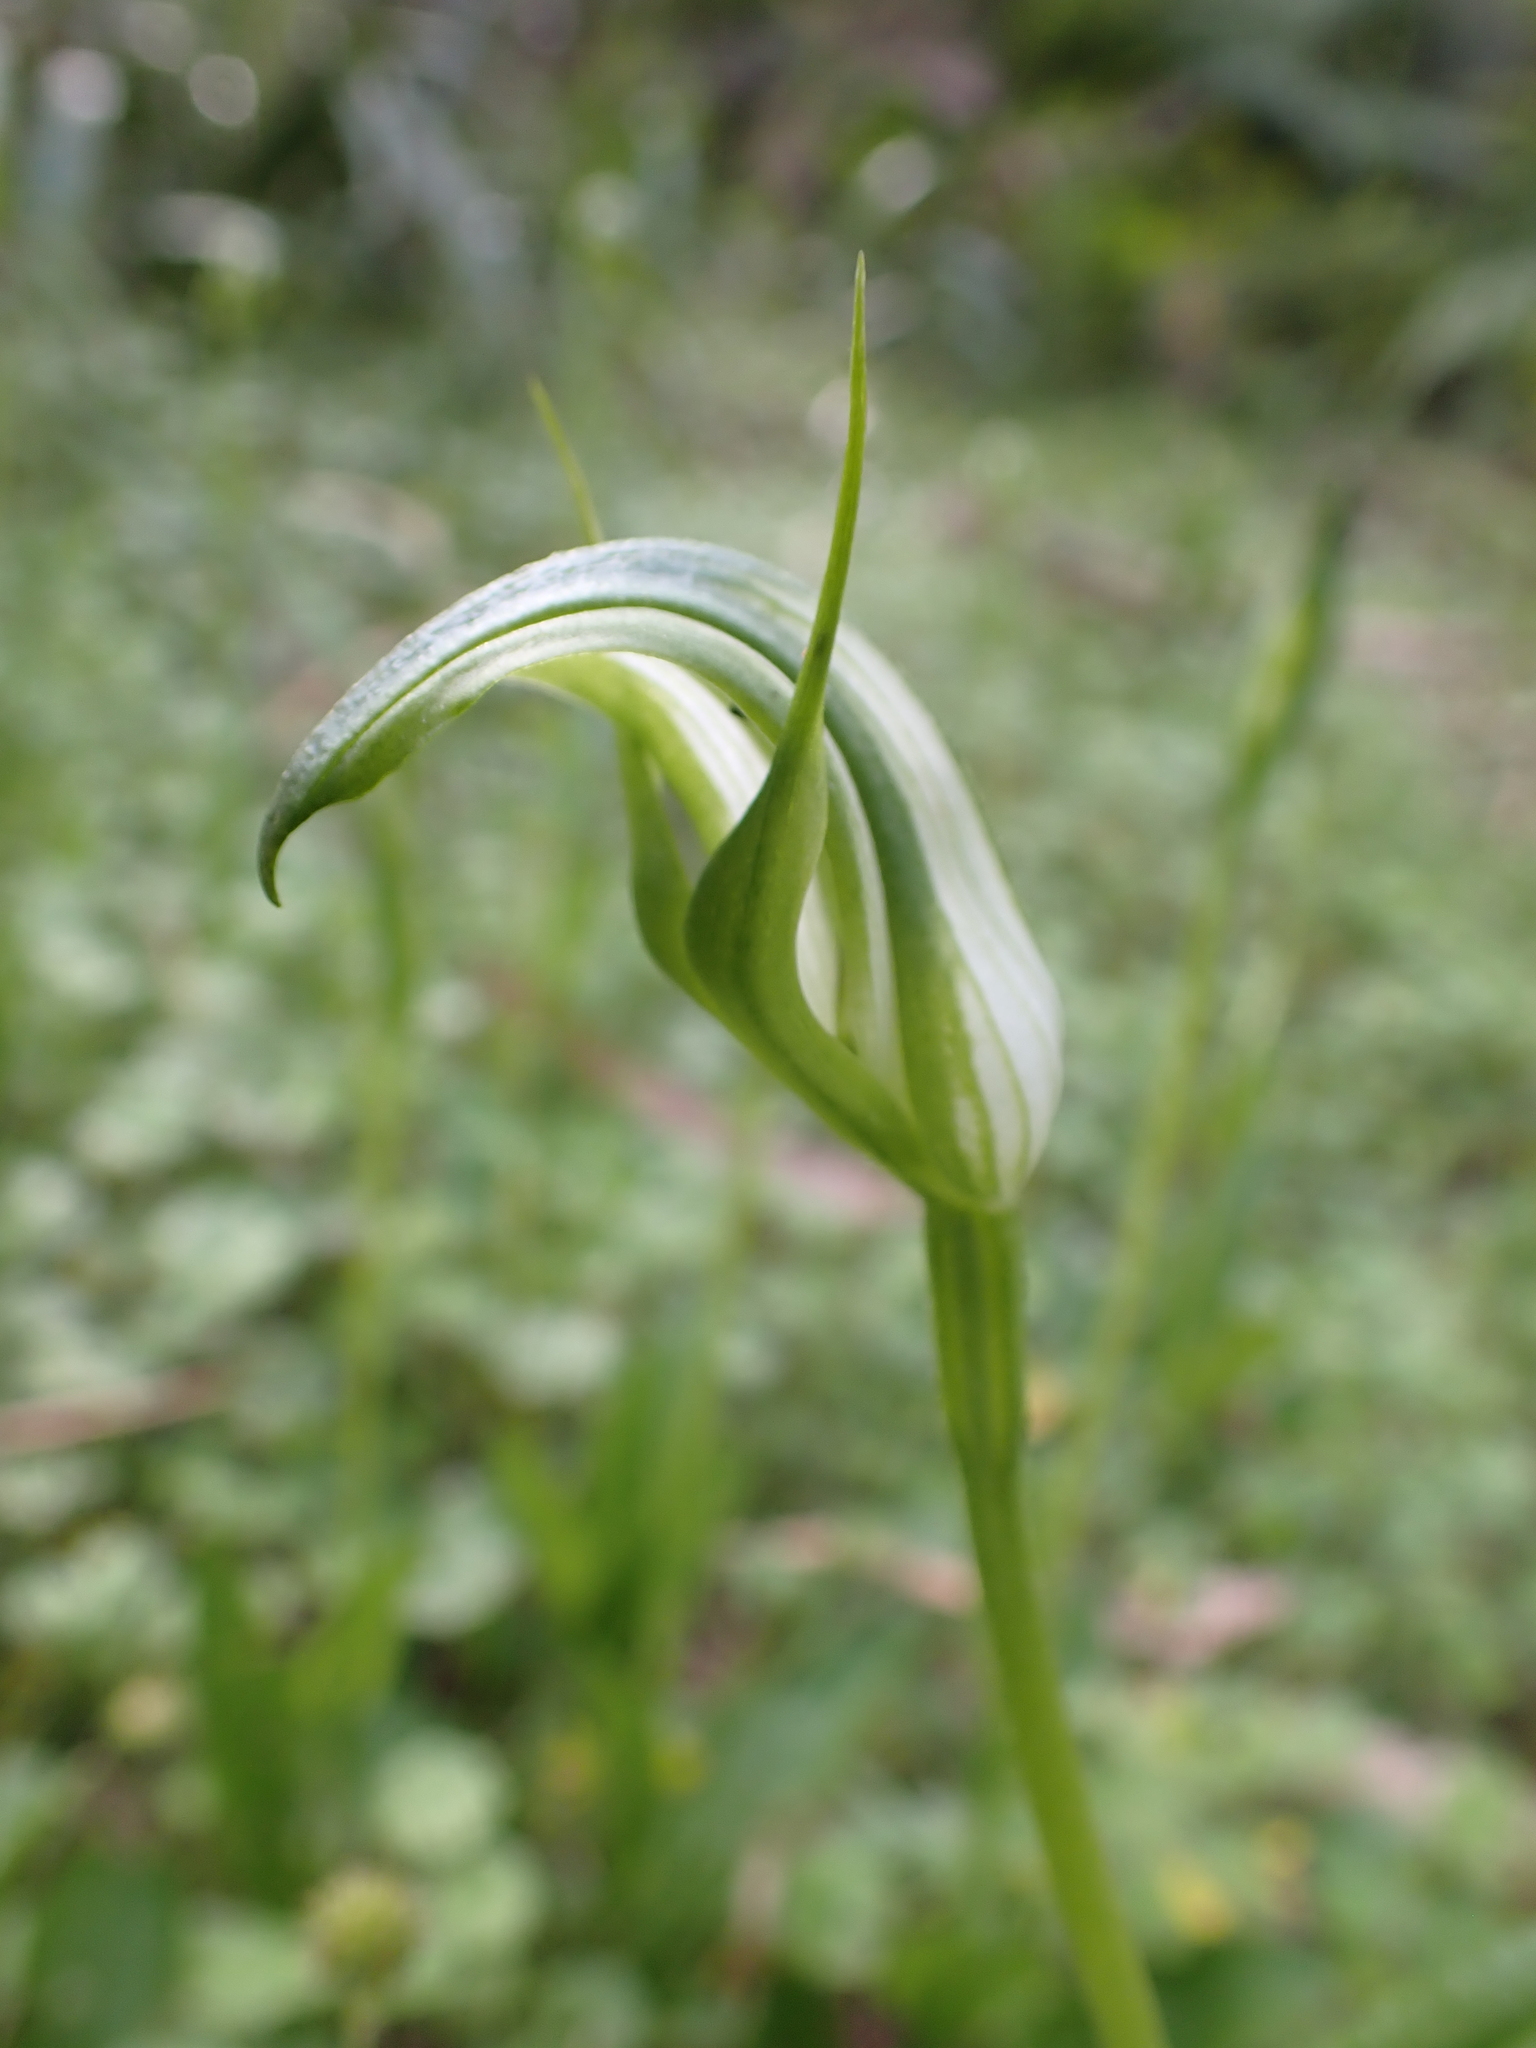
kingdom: Plantae
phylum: Tracheophyta
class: Liliopsida
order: Asparagales
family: Orchidaceae
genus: Pterostylis
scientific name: Pterostylis monticola
